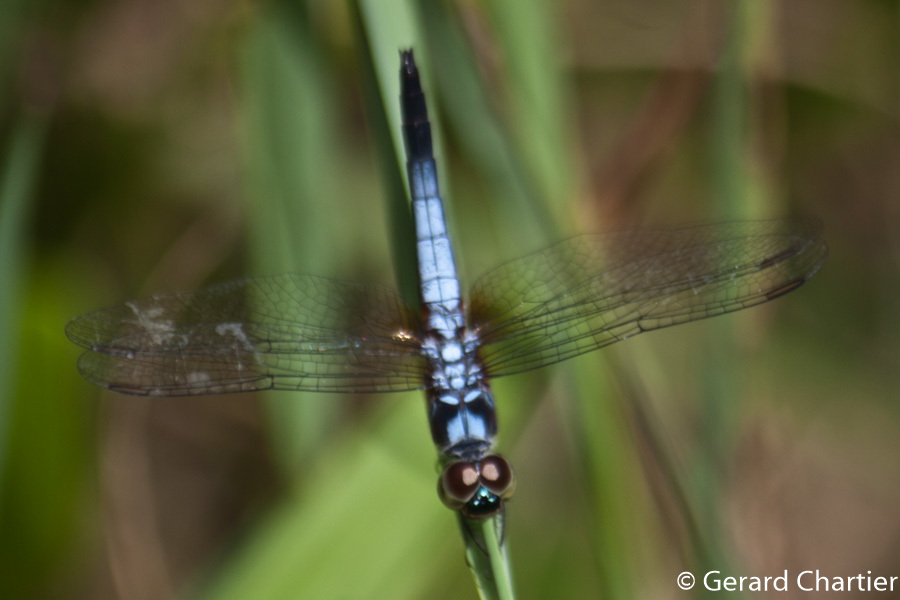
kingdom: Animalia
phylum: Arthropoda
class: Insecta
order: Odonata
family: Libellulidae
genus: Brachydiplax
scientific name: Brachydiplax chalybea
